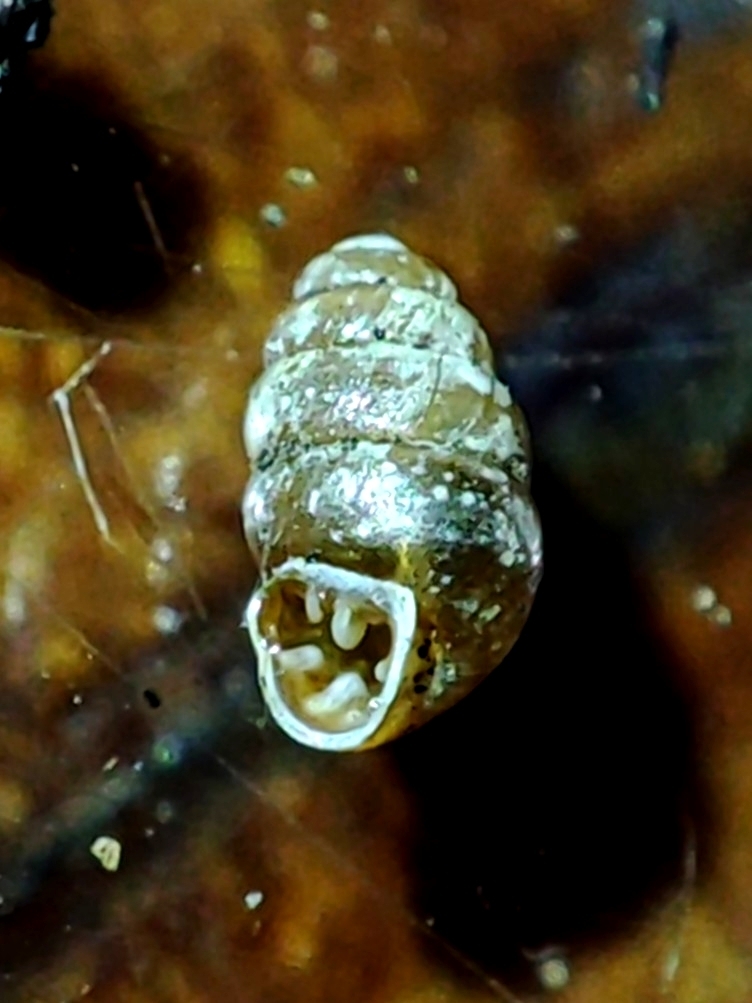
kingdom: Animalia
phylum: Mollusca
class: Gastropoda
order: Stylommatophora
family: Vertiginidae
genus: Vertigo
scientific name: Vertigo pusilla
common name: Wall whorl snail
